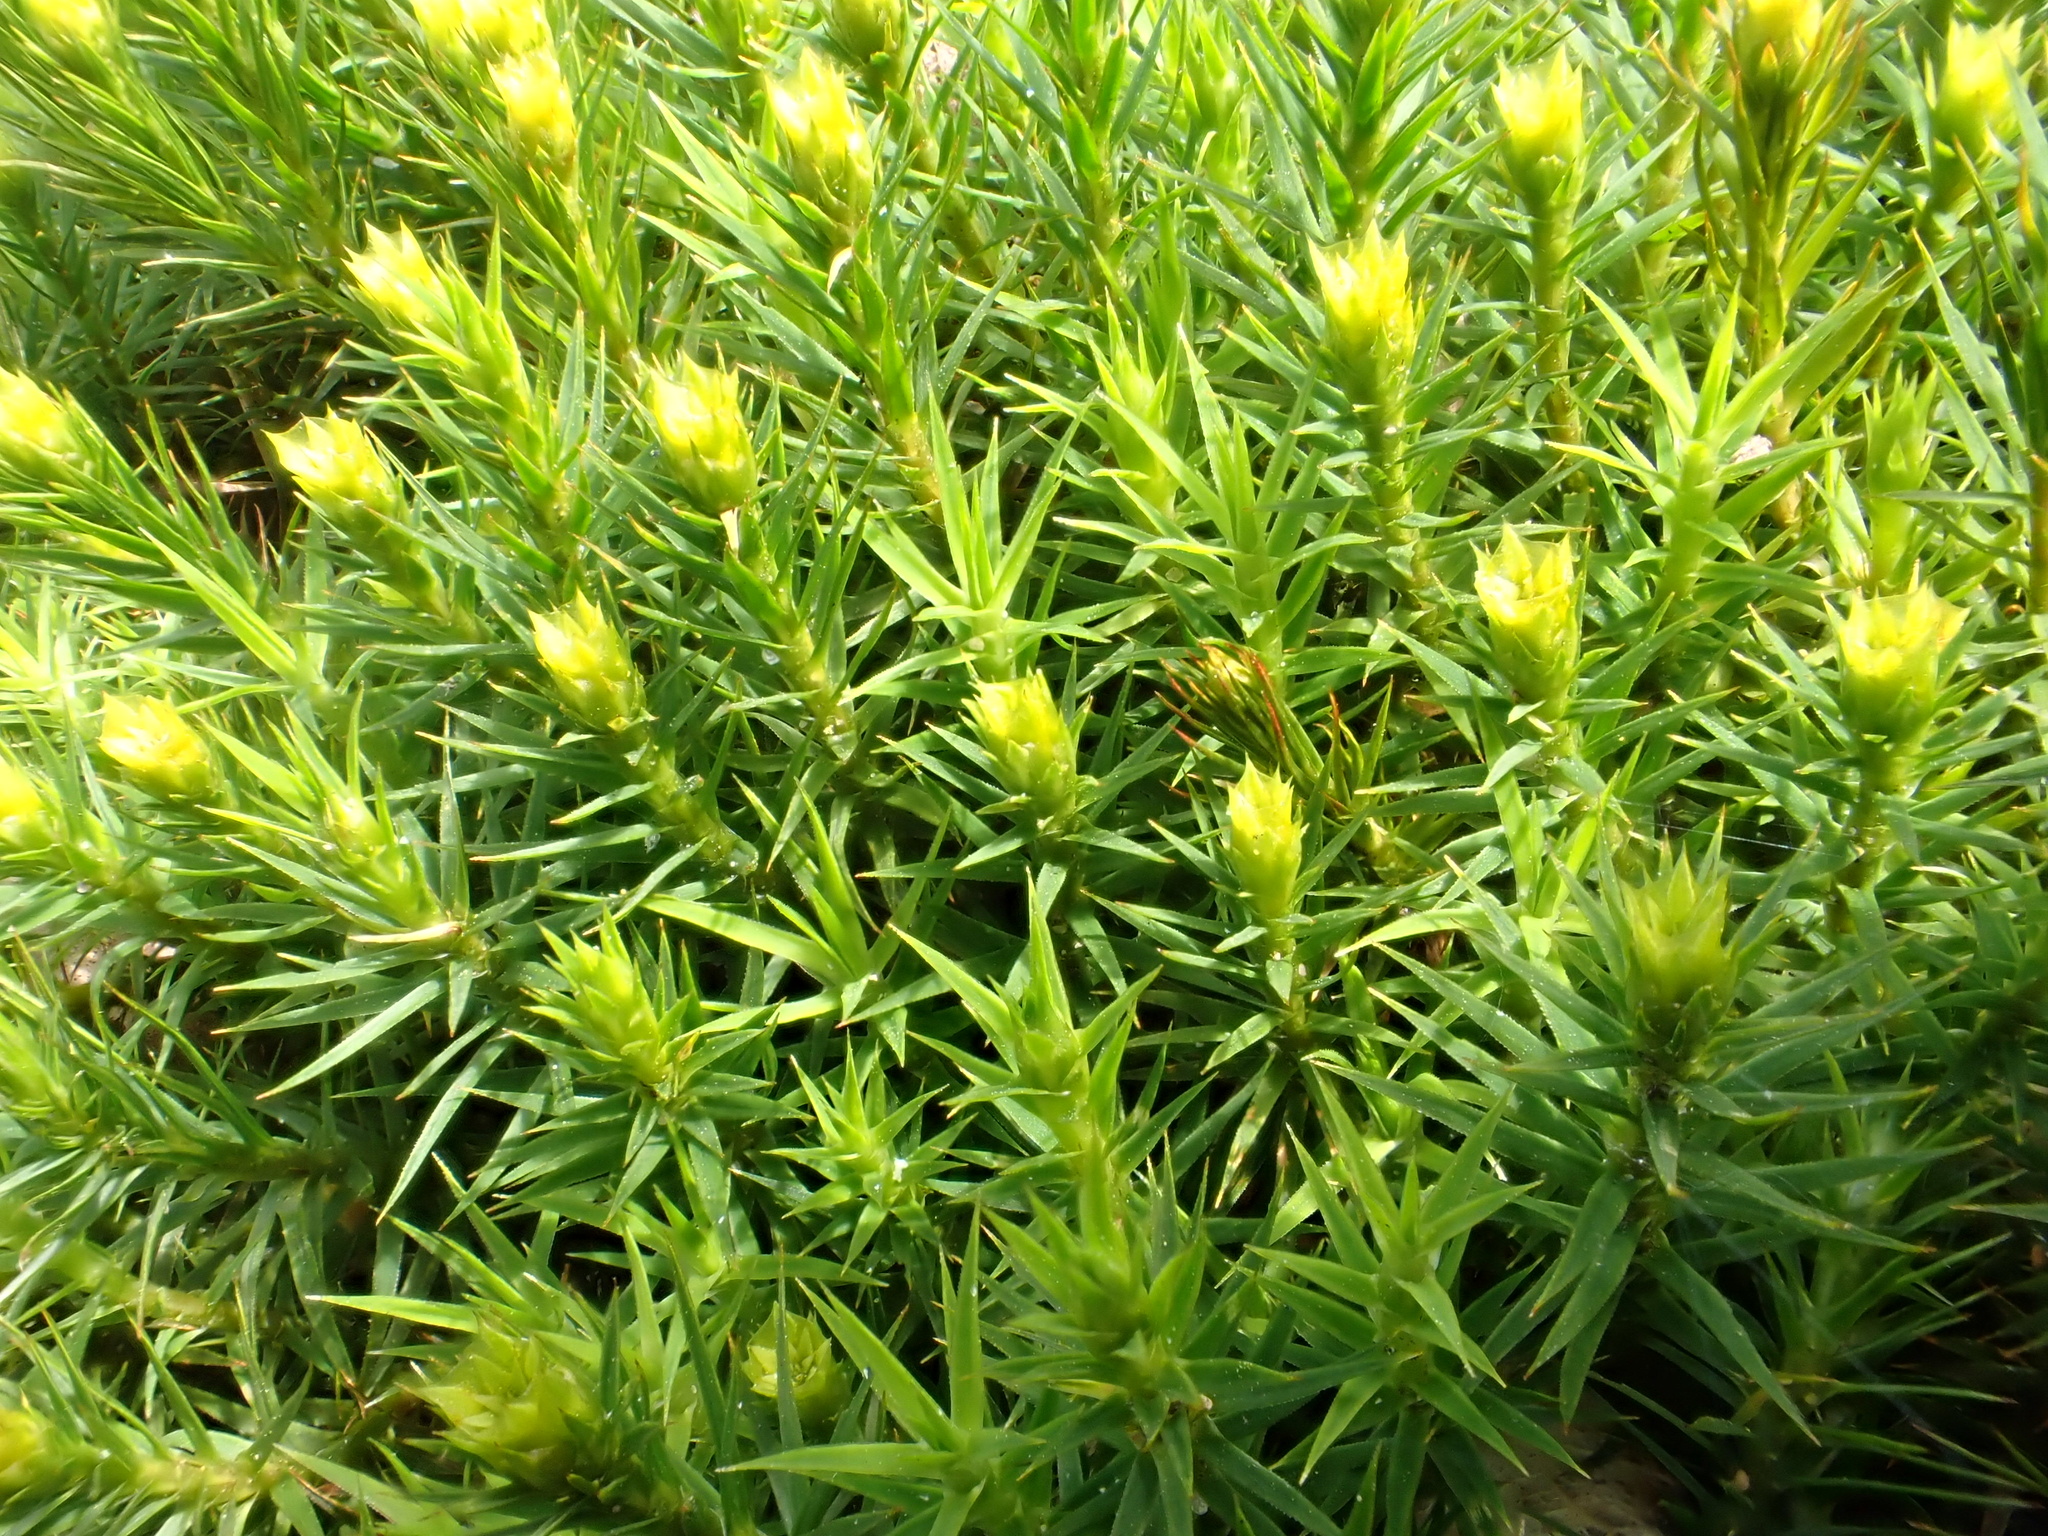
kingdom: Plantae
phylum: Bryophyta
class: Polytrichopsida
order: Polytrichales
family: Polytrichaceae
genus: Polytrichum
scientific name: Polytrichum formosum
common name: Bank haircap moss
